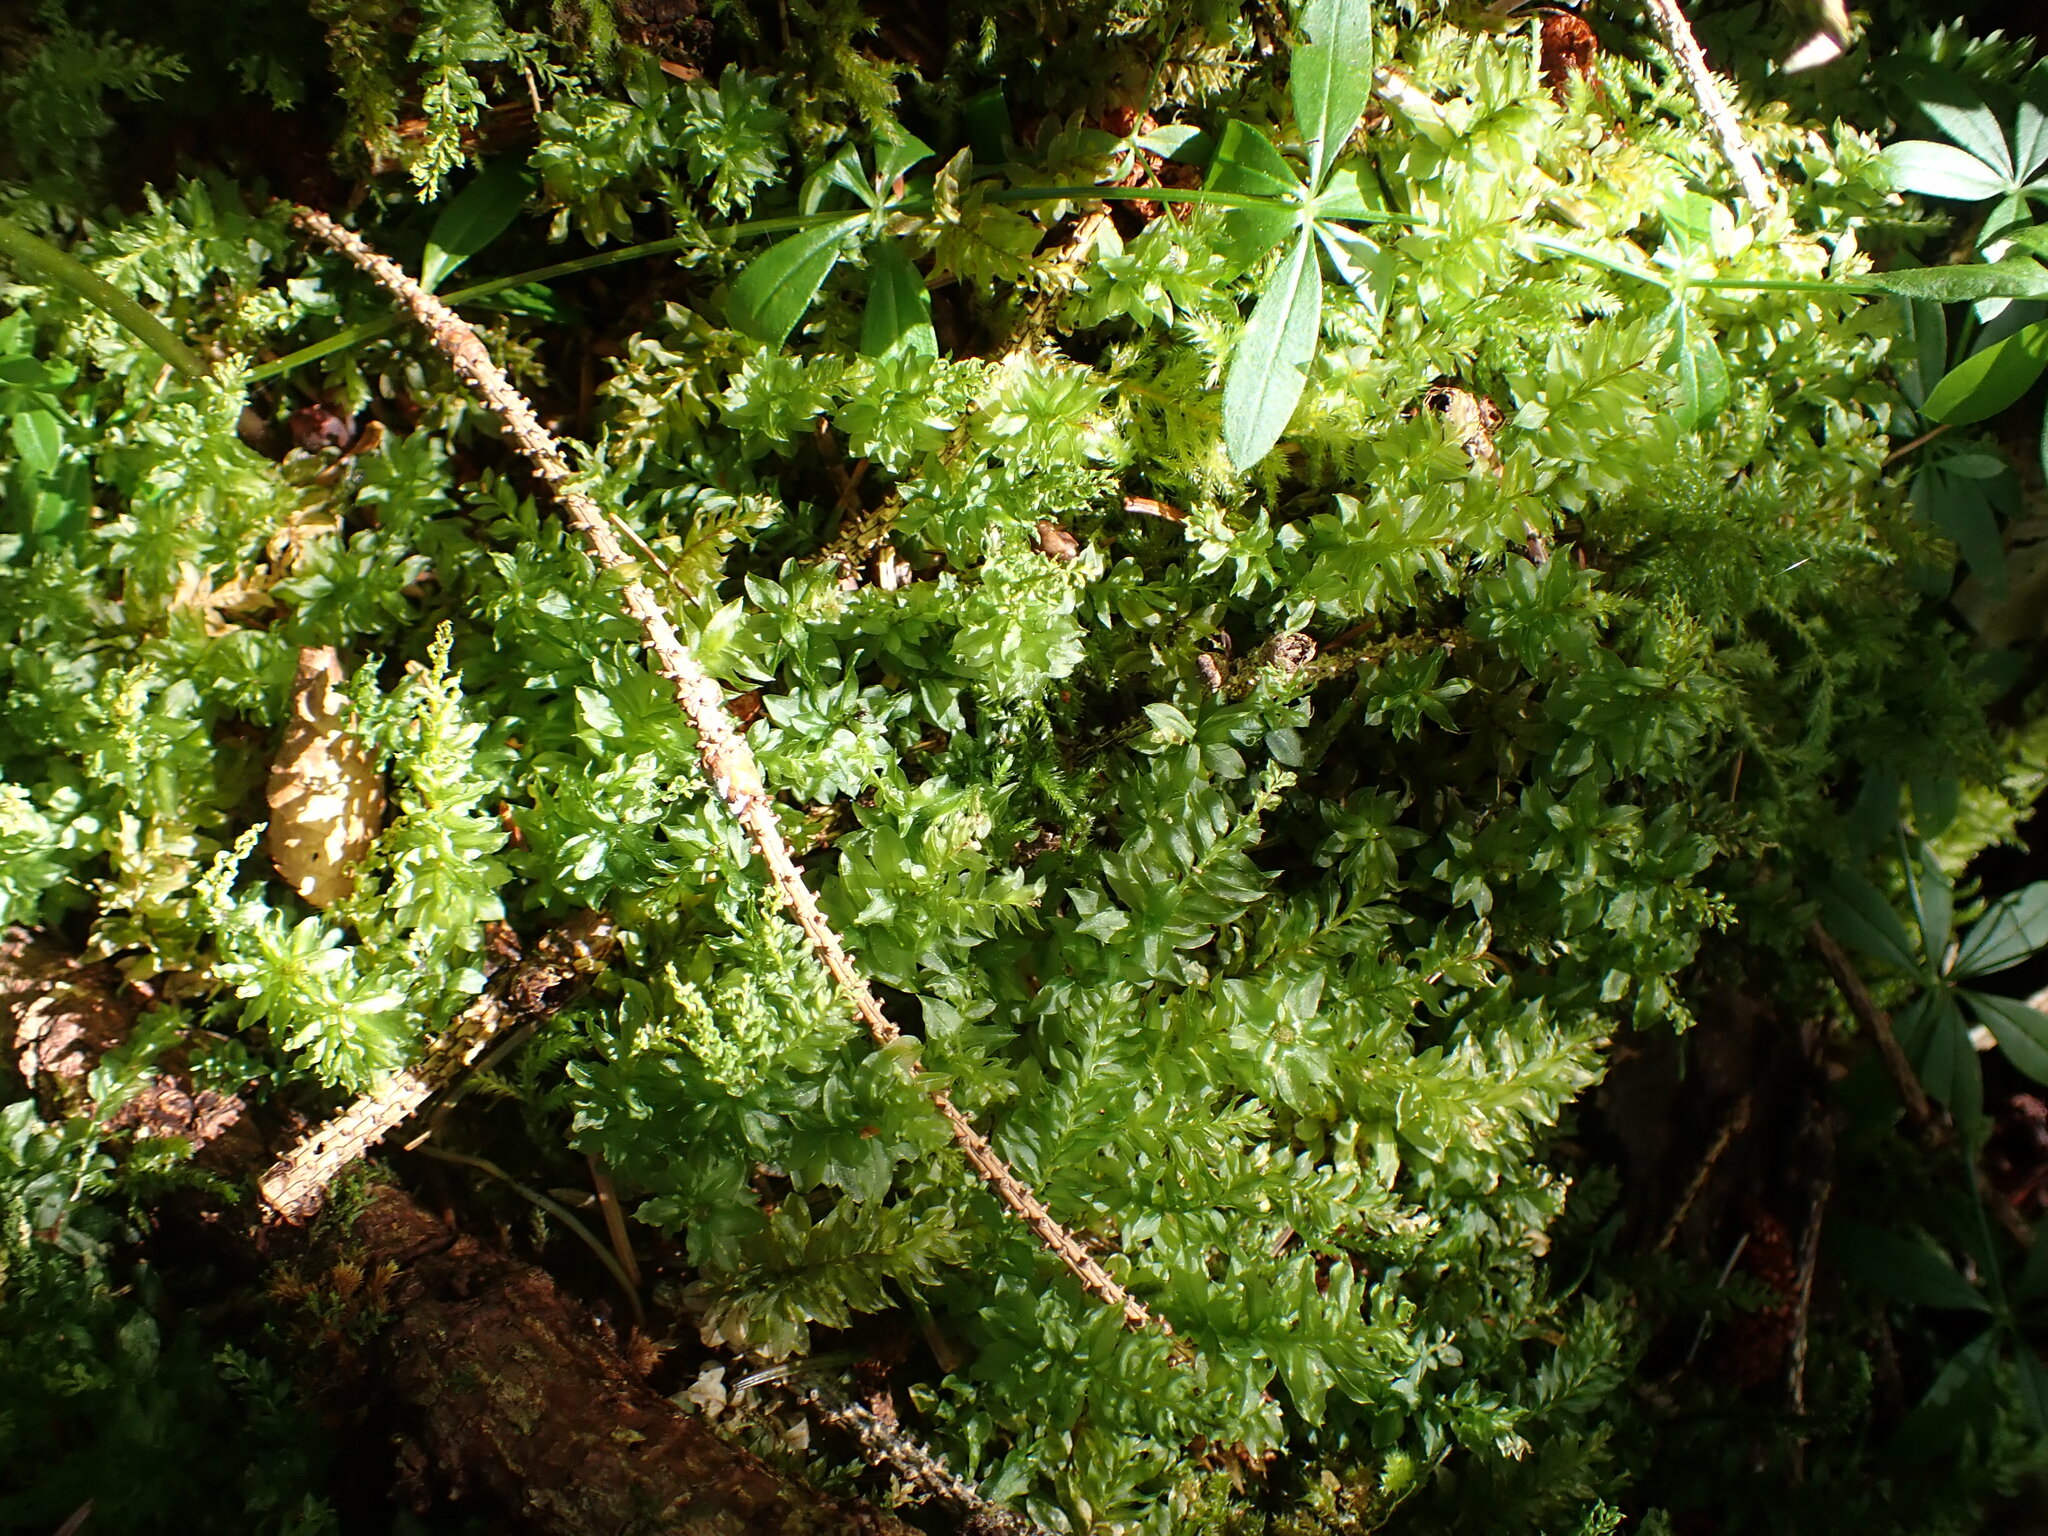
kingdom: Plantae
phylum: Bryophyta
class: Bryopsida
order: Bryales
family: Mniaceae
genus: Plagiomnium
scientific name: Plagiomnium insigne
